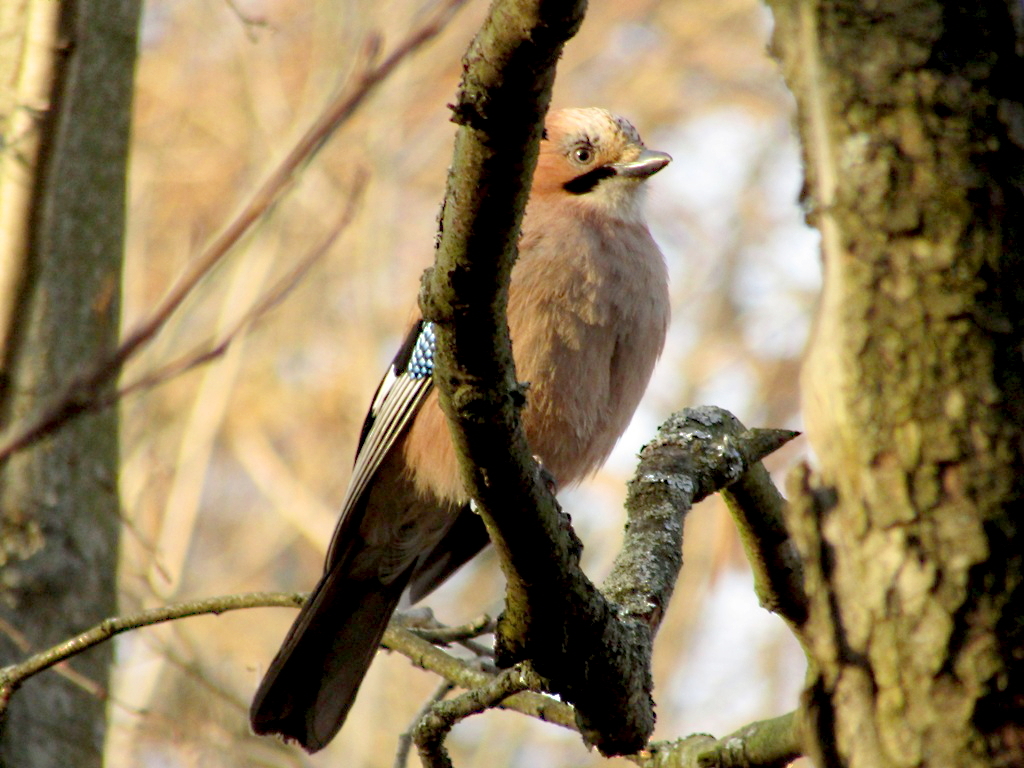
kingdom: Animalia
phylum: Chordata
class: Aves
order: Passeriformes
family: Corvidae
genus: Garrulus
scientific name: Garrulus glandarius
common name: Eurasian jay
